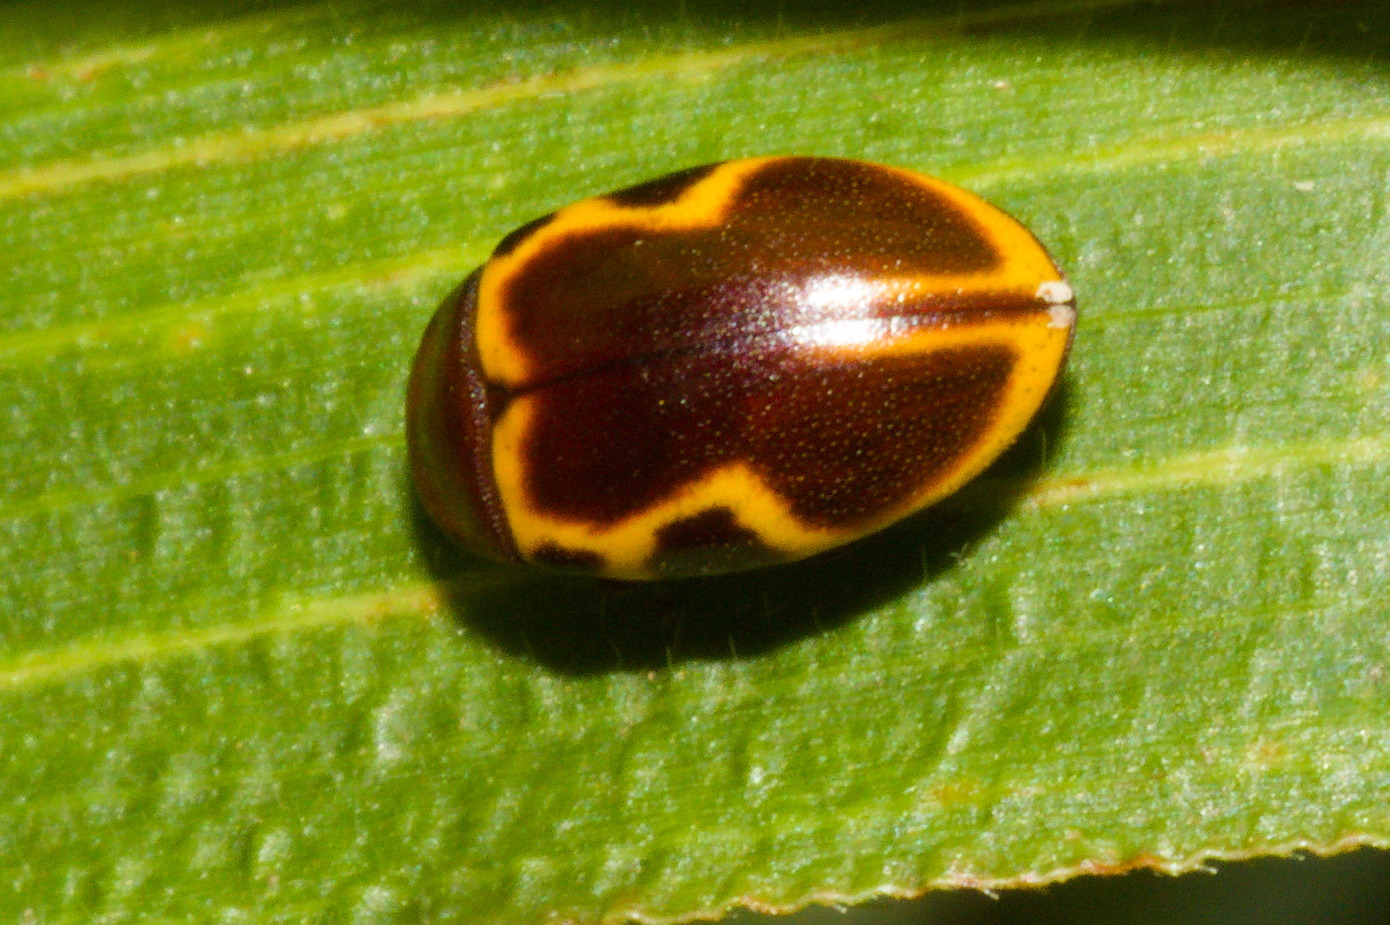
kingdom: Animalia
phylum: Arthropoda
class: Insecta
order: Coleoptera
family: Chelonariidae
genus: Chelonarium
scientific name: Chelonarium
